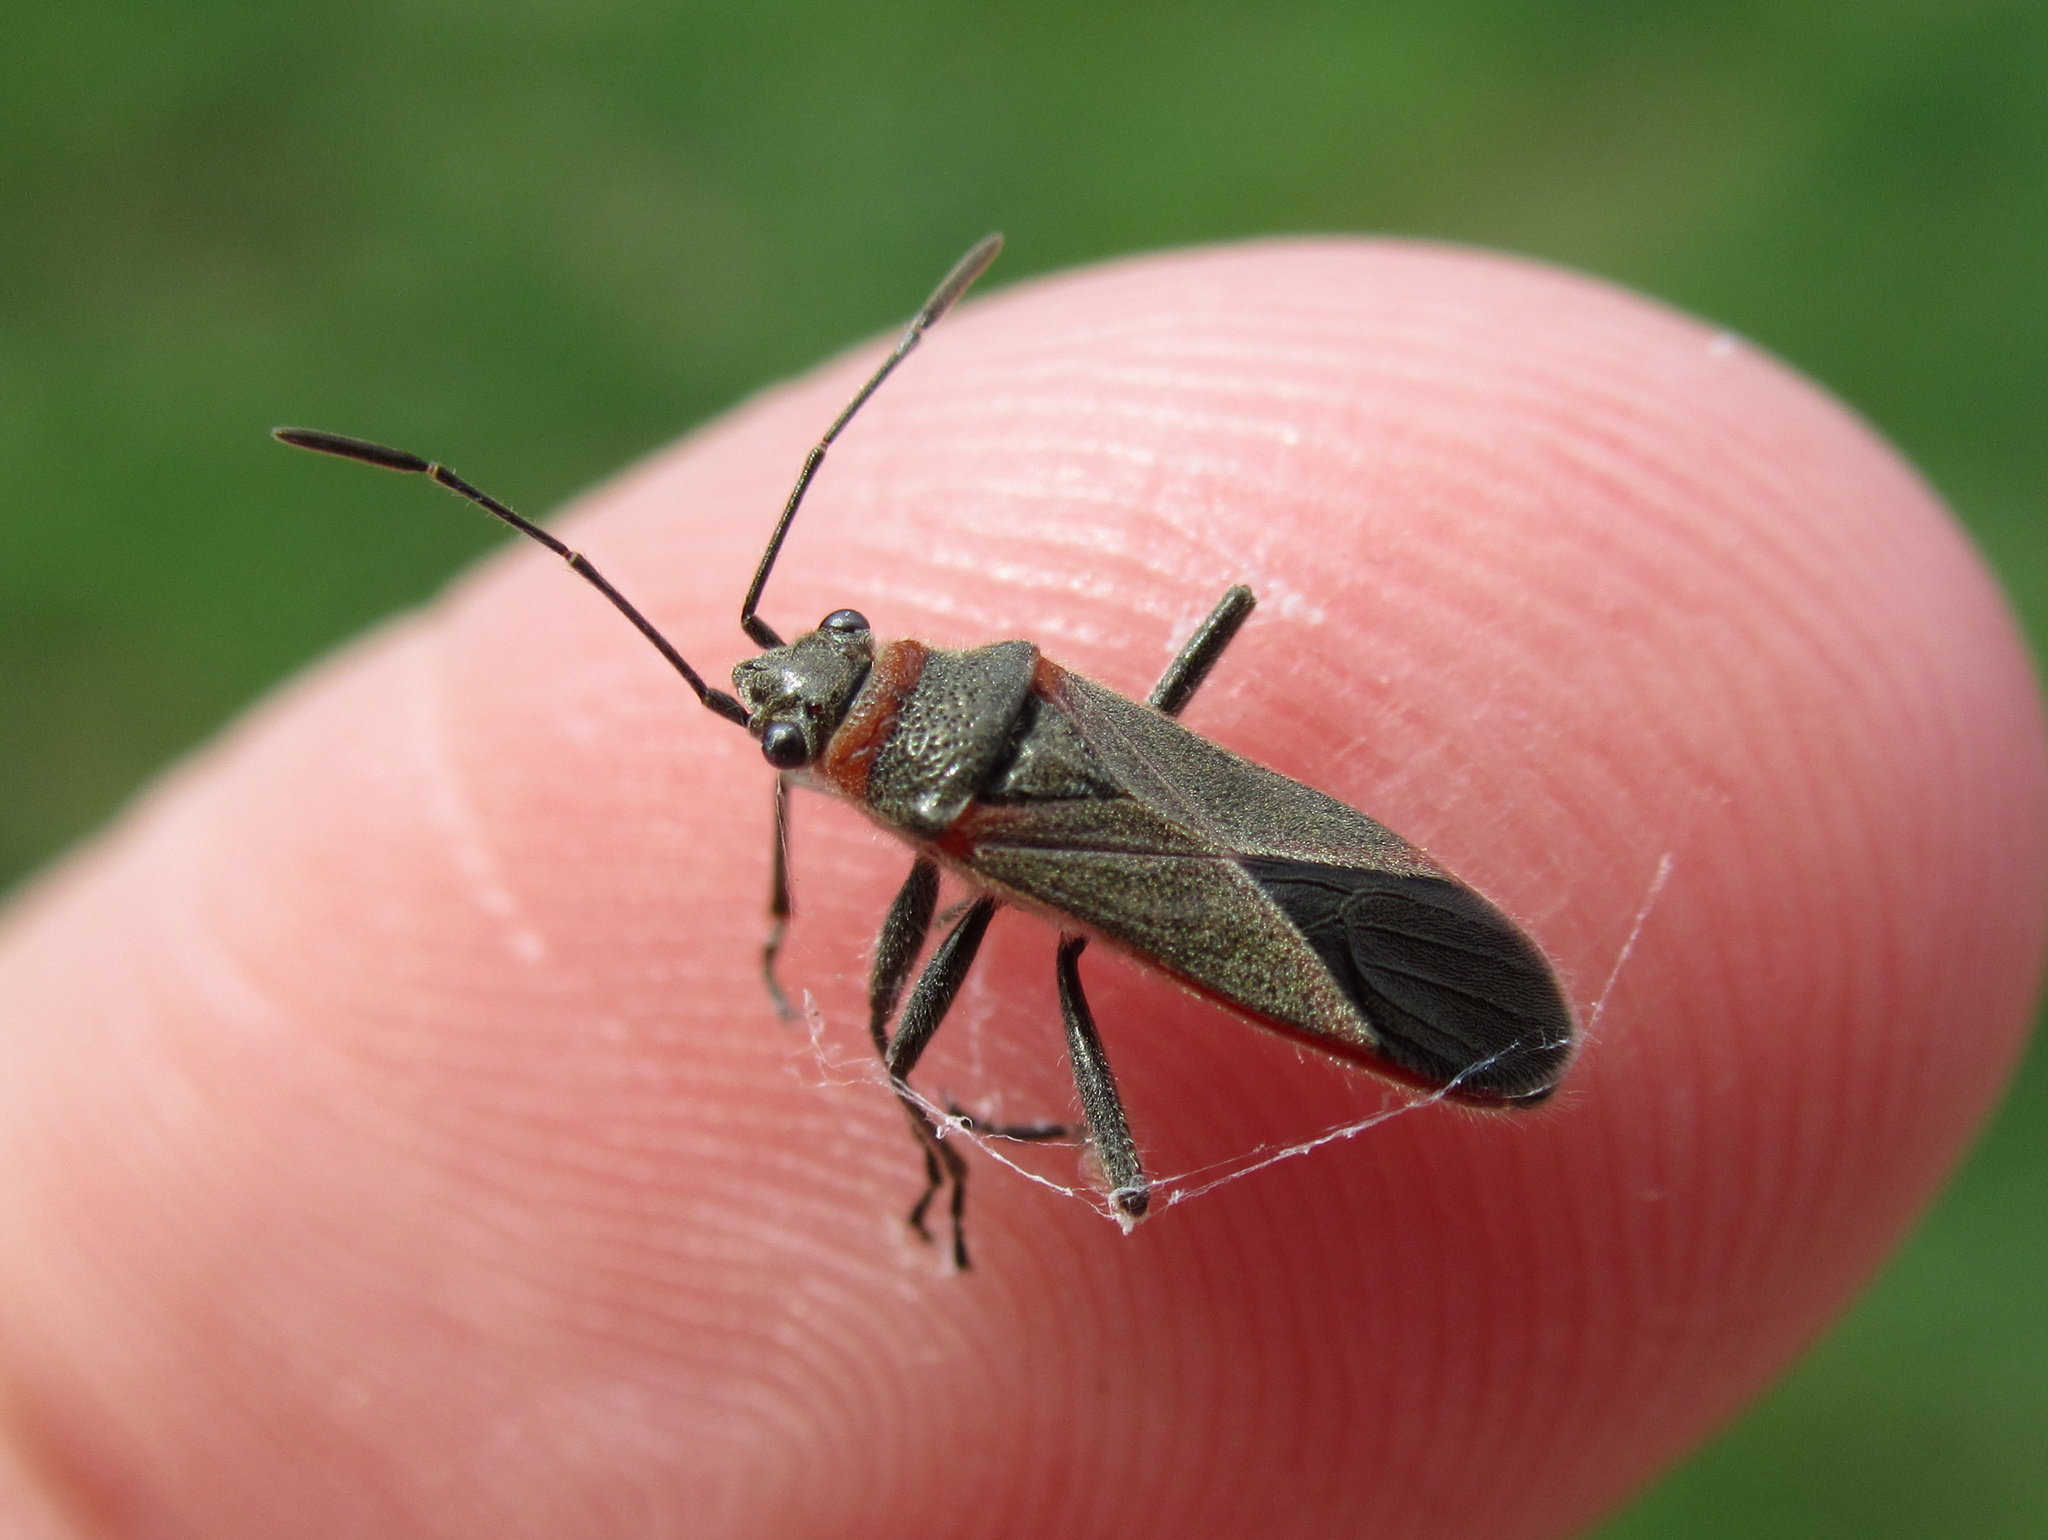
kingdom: Animalia
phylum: Arthropoda
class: Insecta
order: Hemiptera
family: Lygaeidae
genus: Arocatus
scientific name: Arocatus rusticus
